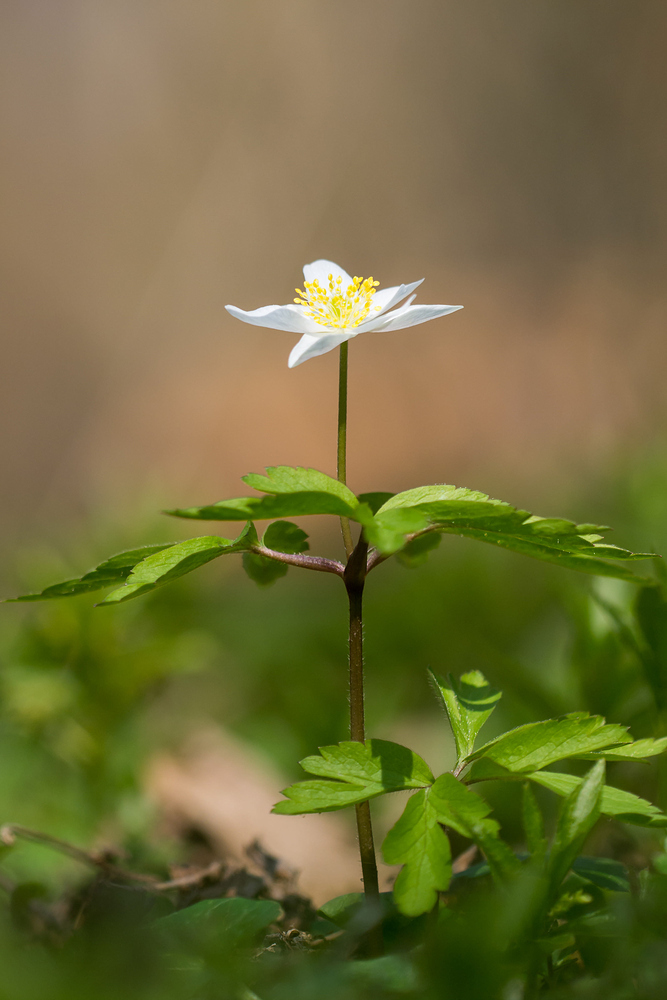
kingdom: Plantae
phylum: Tracheophyta
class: Magnoliopsida
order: Ranunculales
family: Ranunculaceae
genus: Anemone
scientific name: Anemone nemorosa
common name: Wood anemone
